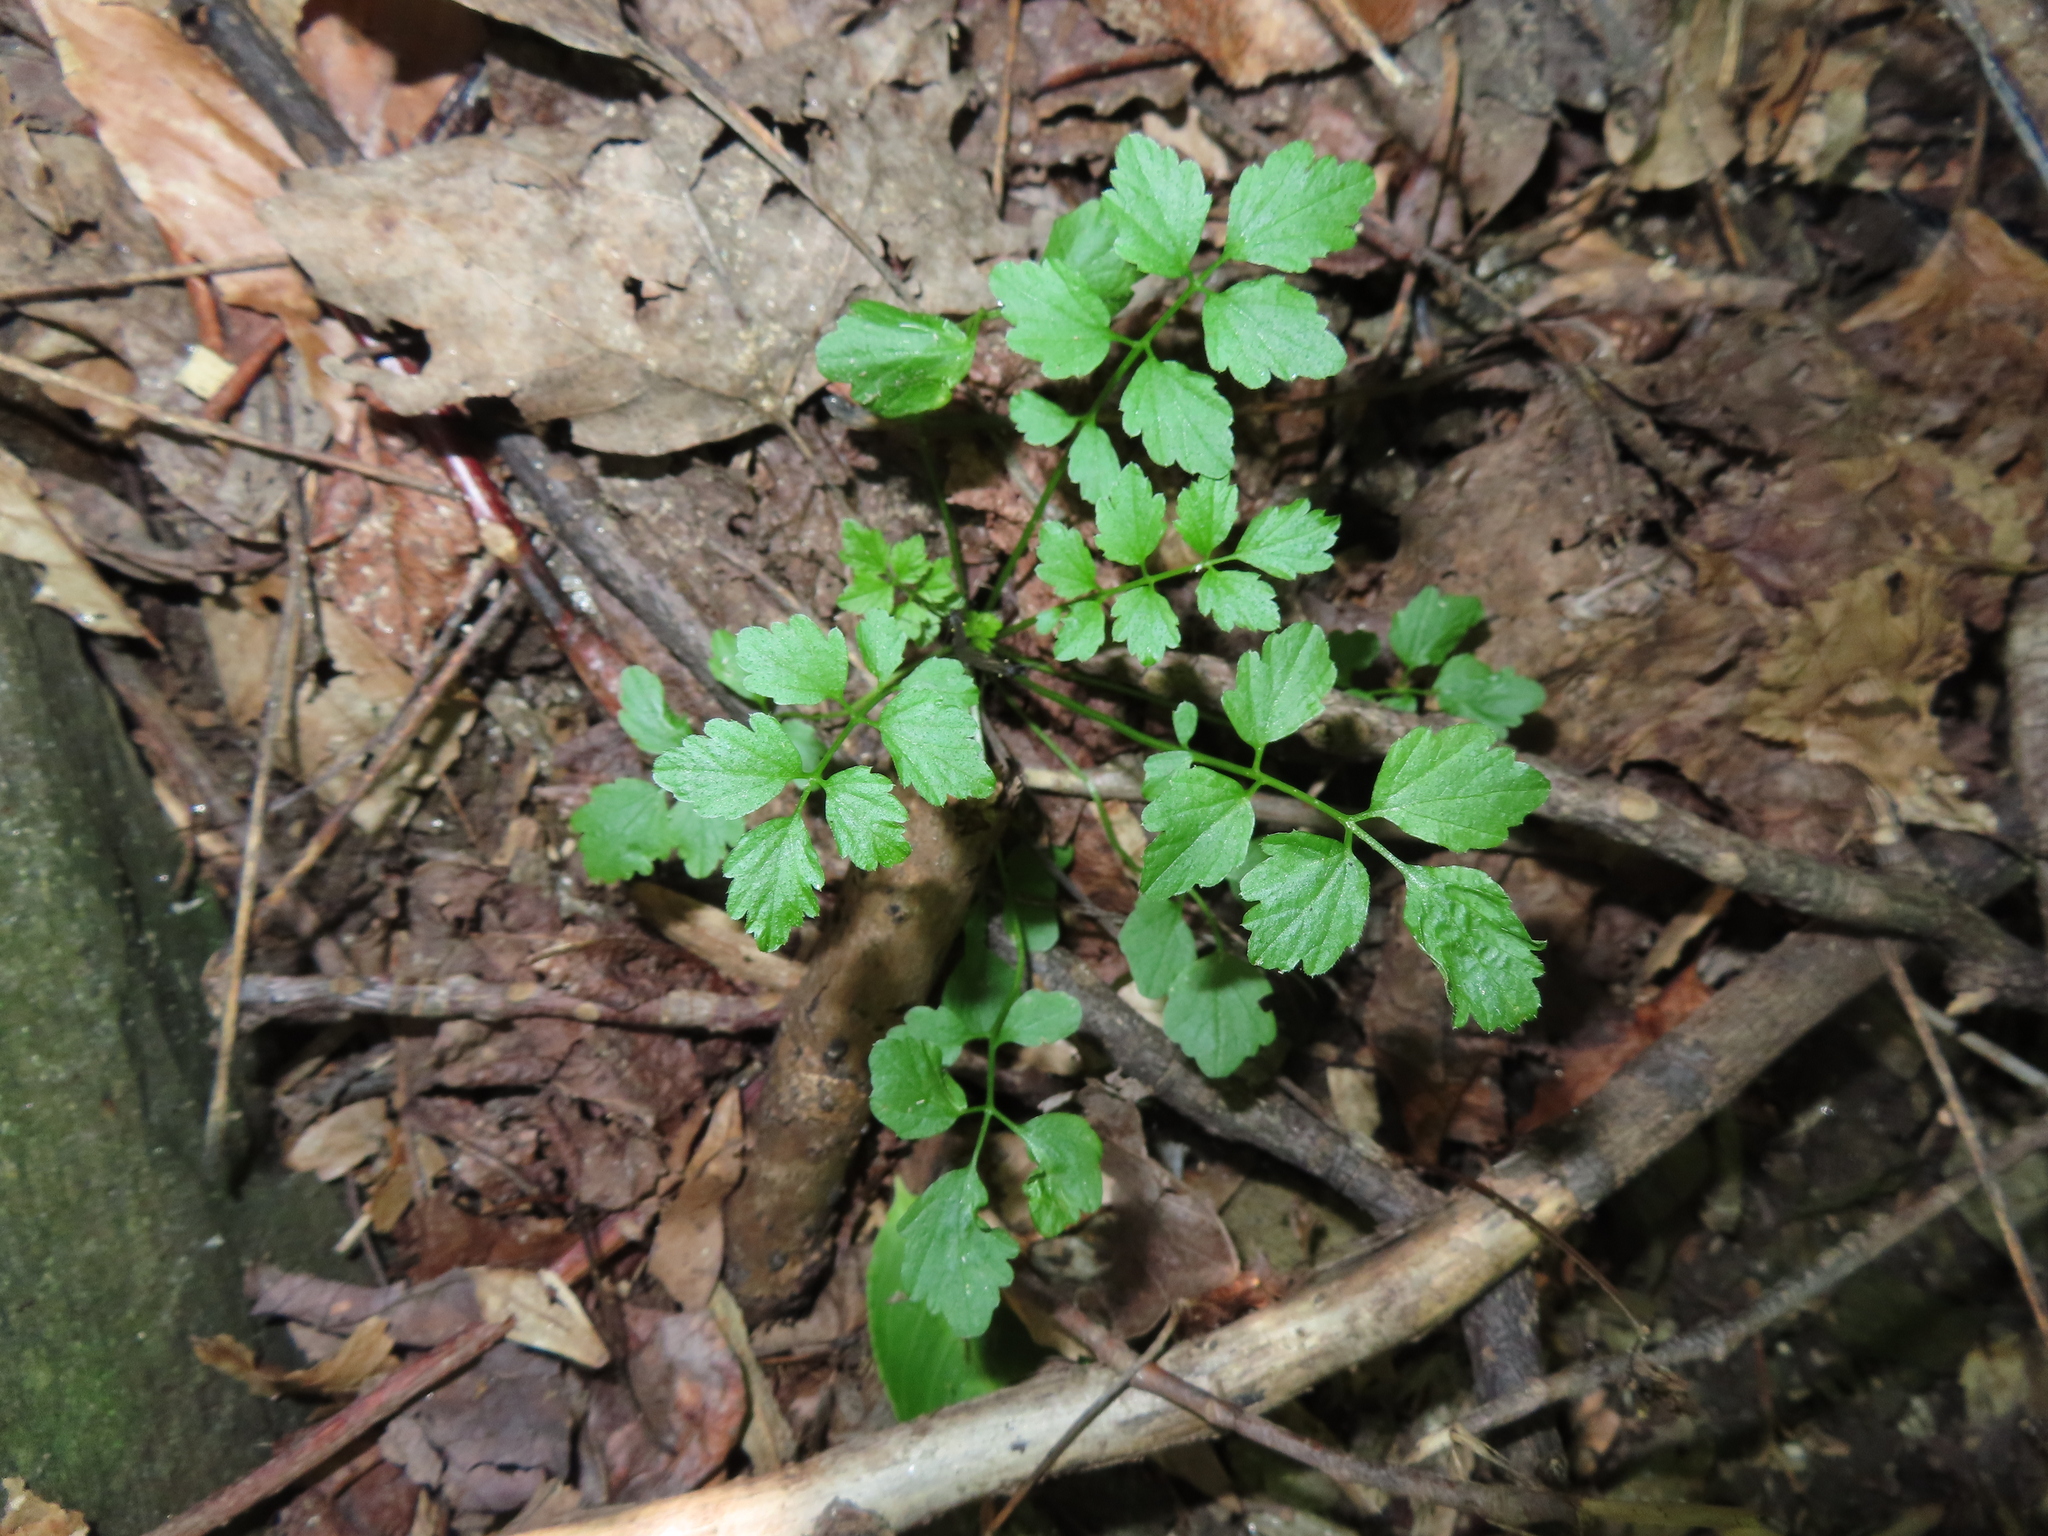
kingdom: Plantae
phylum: Tracheophyta
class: Magnoliopsida
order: Brassicales
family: Brassicaceae
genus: Cardamine
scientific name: Cardamine impatiens
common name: Narrow-leaved bitter-cress
